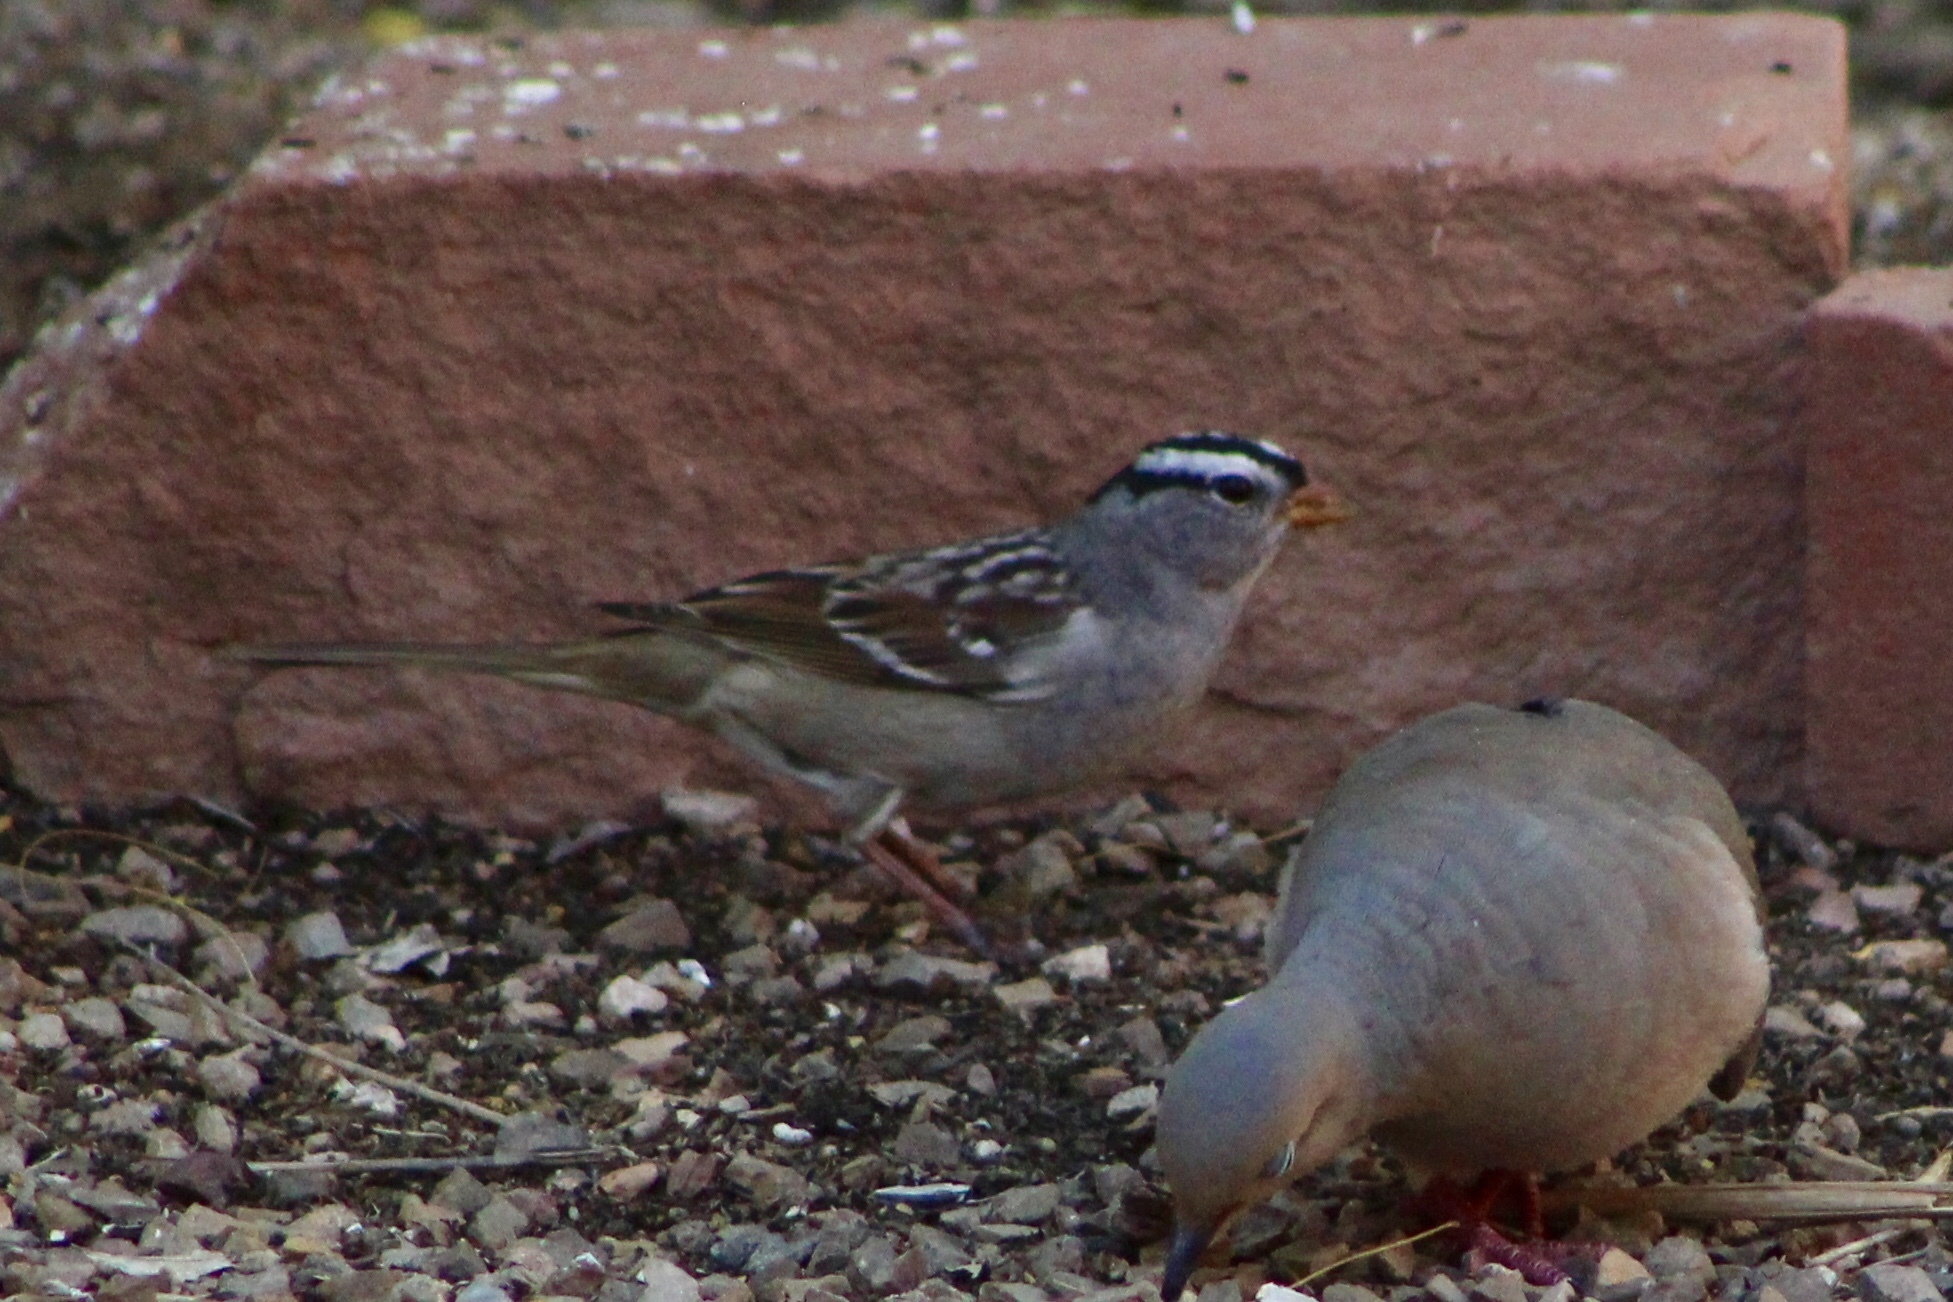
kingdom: Animalia
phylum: Chordata
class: Aves
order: Passeriformes
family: Passerellidae
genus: Zonotrichia
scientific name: Zonotrichia leucophrys
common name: White-crowned sparrow
